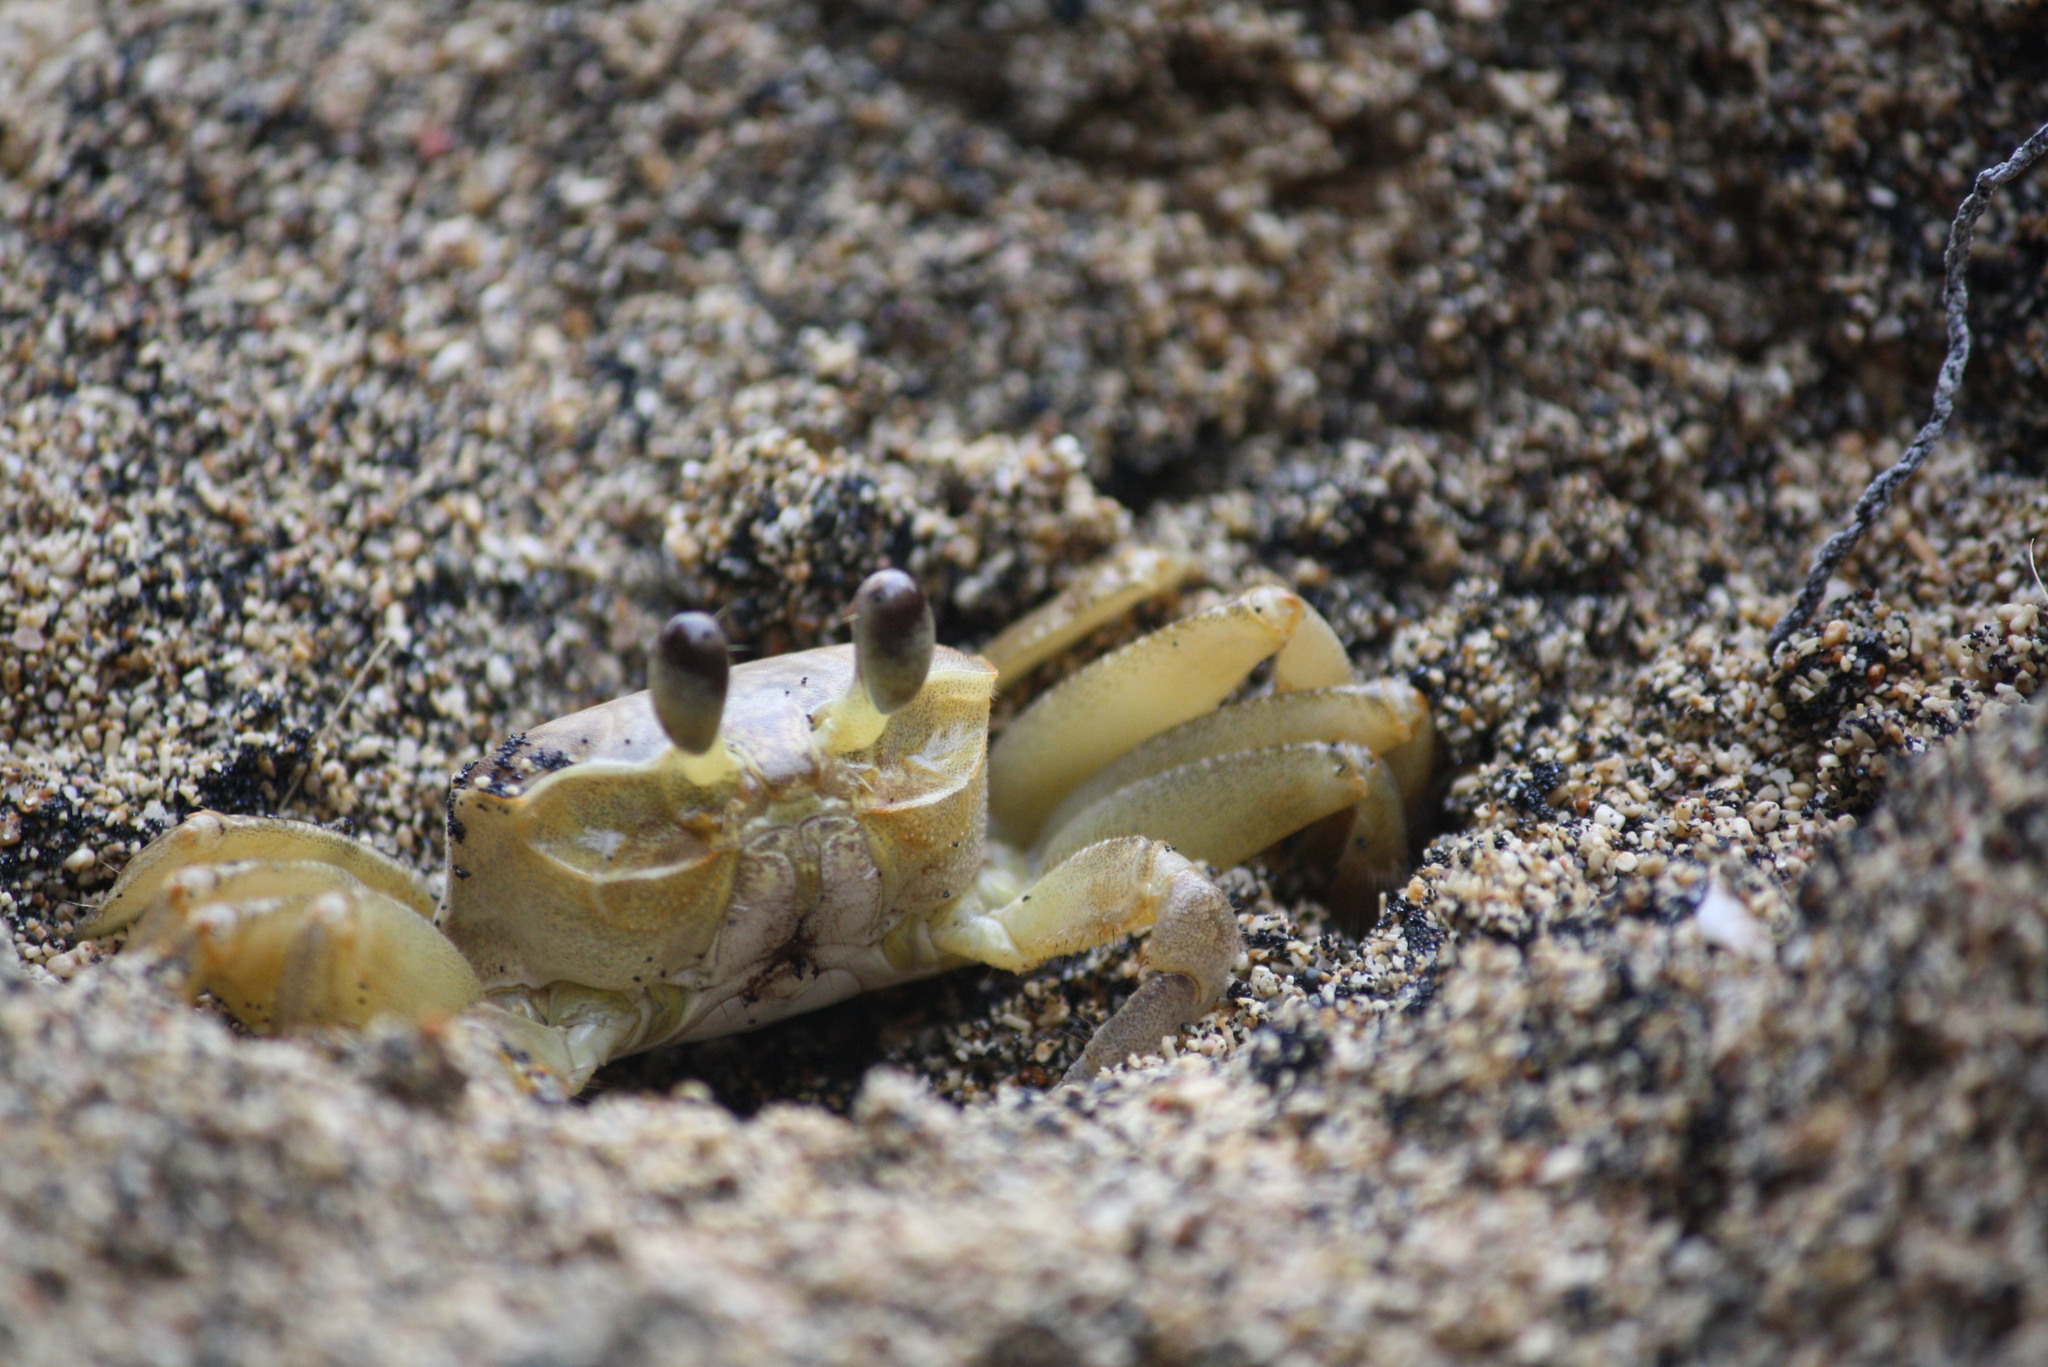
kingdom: Animalia
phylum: Arthropoda
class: Malacostraca
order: Decapoda
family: Ocypodidae
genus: Ocypode
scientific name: Ocypode quadrata
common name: Ghost crab
